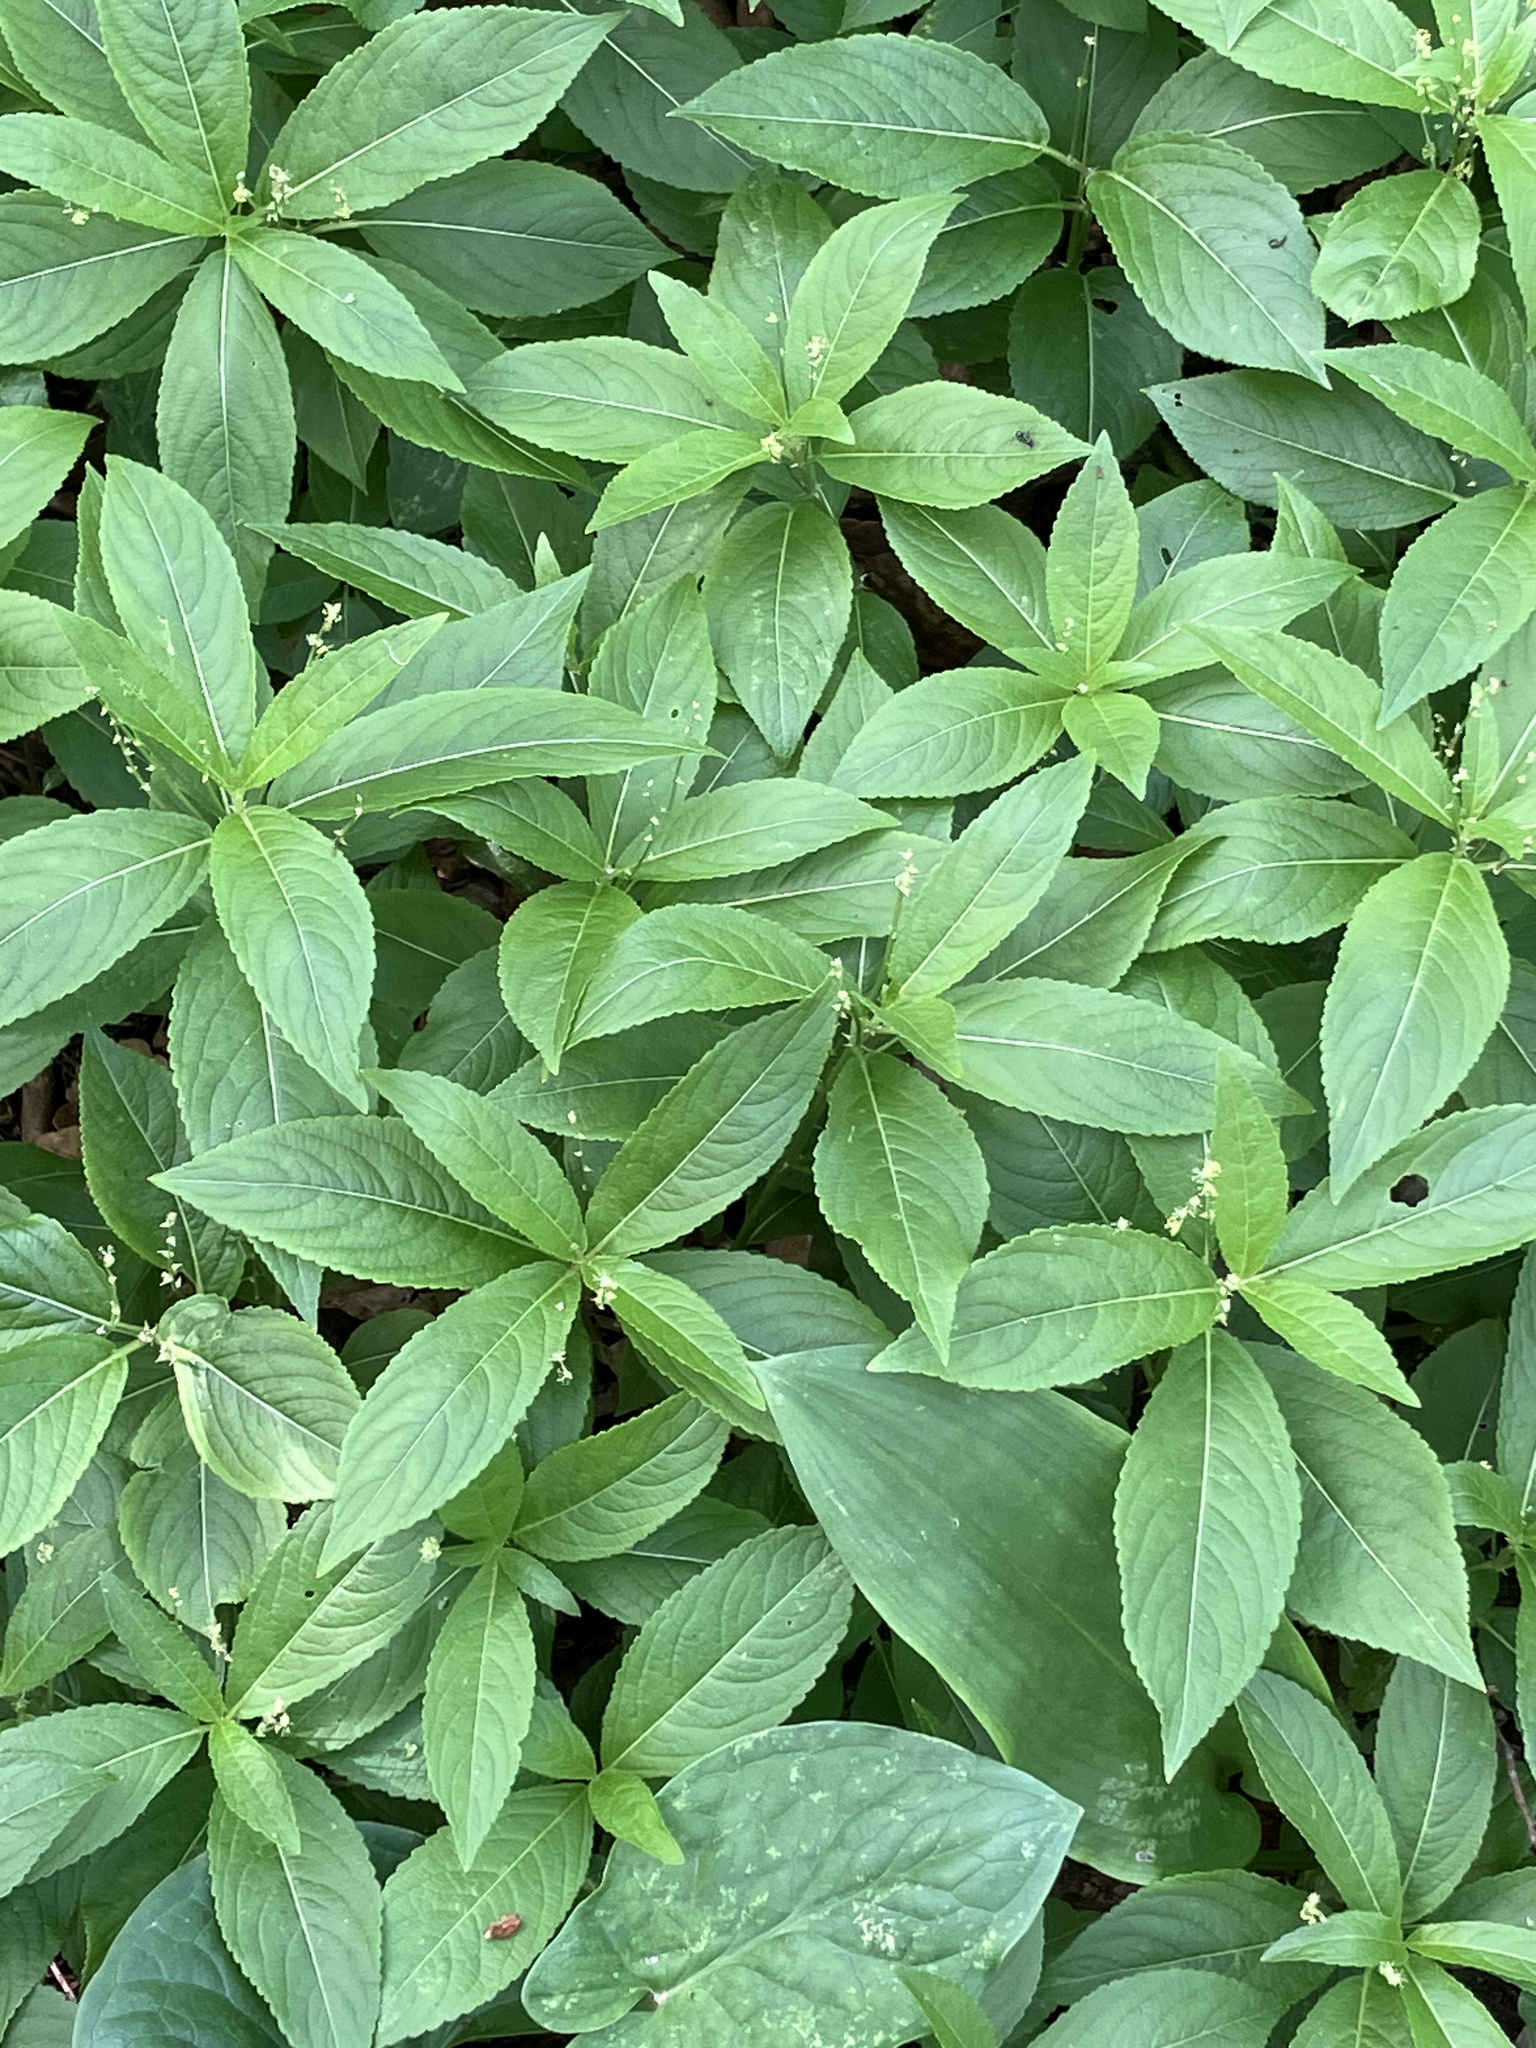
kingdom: Plantae
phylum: Tracheophyta
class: Magnoliopsida
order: Malpighiales
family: Euphorbiaceae
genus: Mercurialis
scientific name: Mercurialis perennis
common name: Dog mercury
